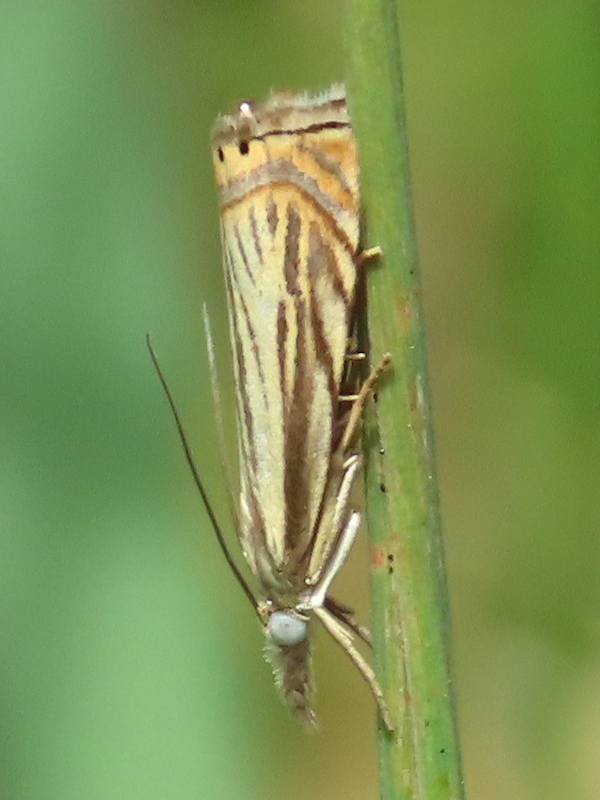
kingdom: Animalia
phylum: Arthropoda
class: Insecta
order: Lepidoptera
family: Crambidae
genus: Chrysoteuchia
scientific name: Chrysoteuchia topiarius
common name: Topiary grass-veneer
